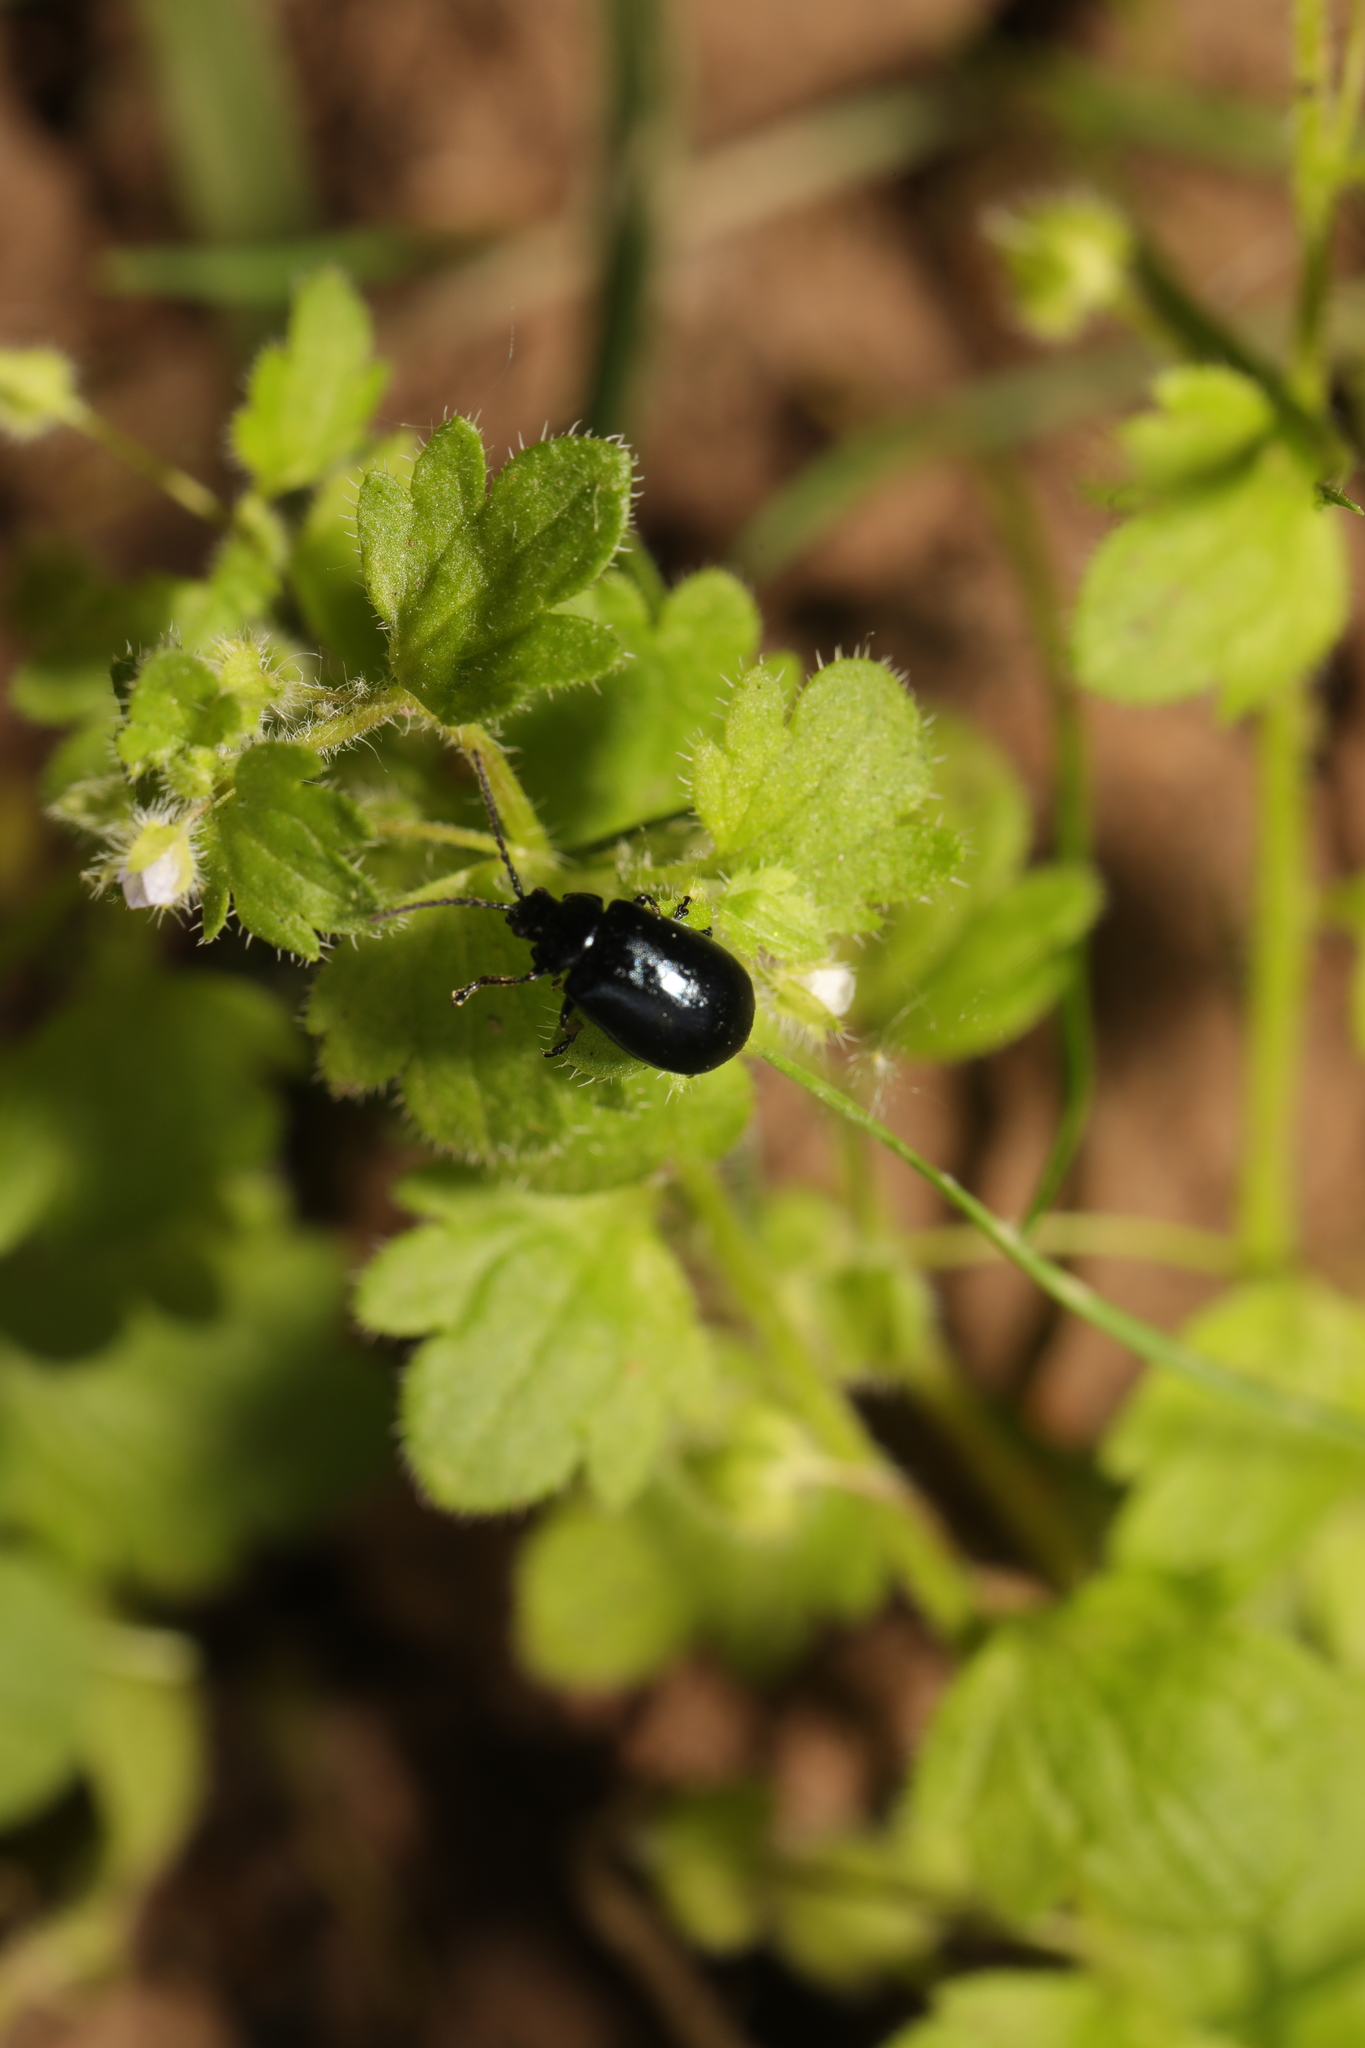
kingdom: Animalia
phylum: Arthropoda
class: Insecta
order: Coleoptera
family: Chrysomelidae
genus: Agelastica
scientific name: Agelastica alni
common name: Alder leaf beetle
